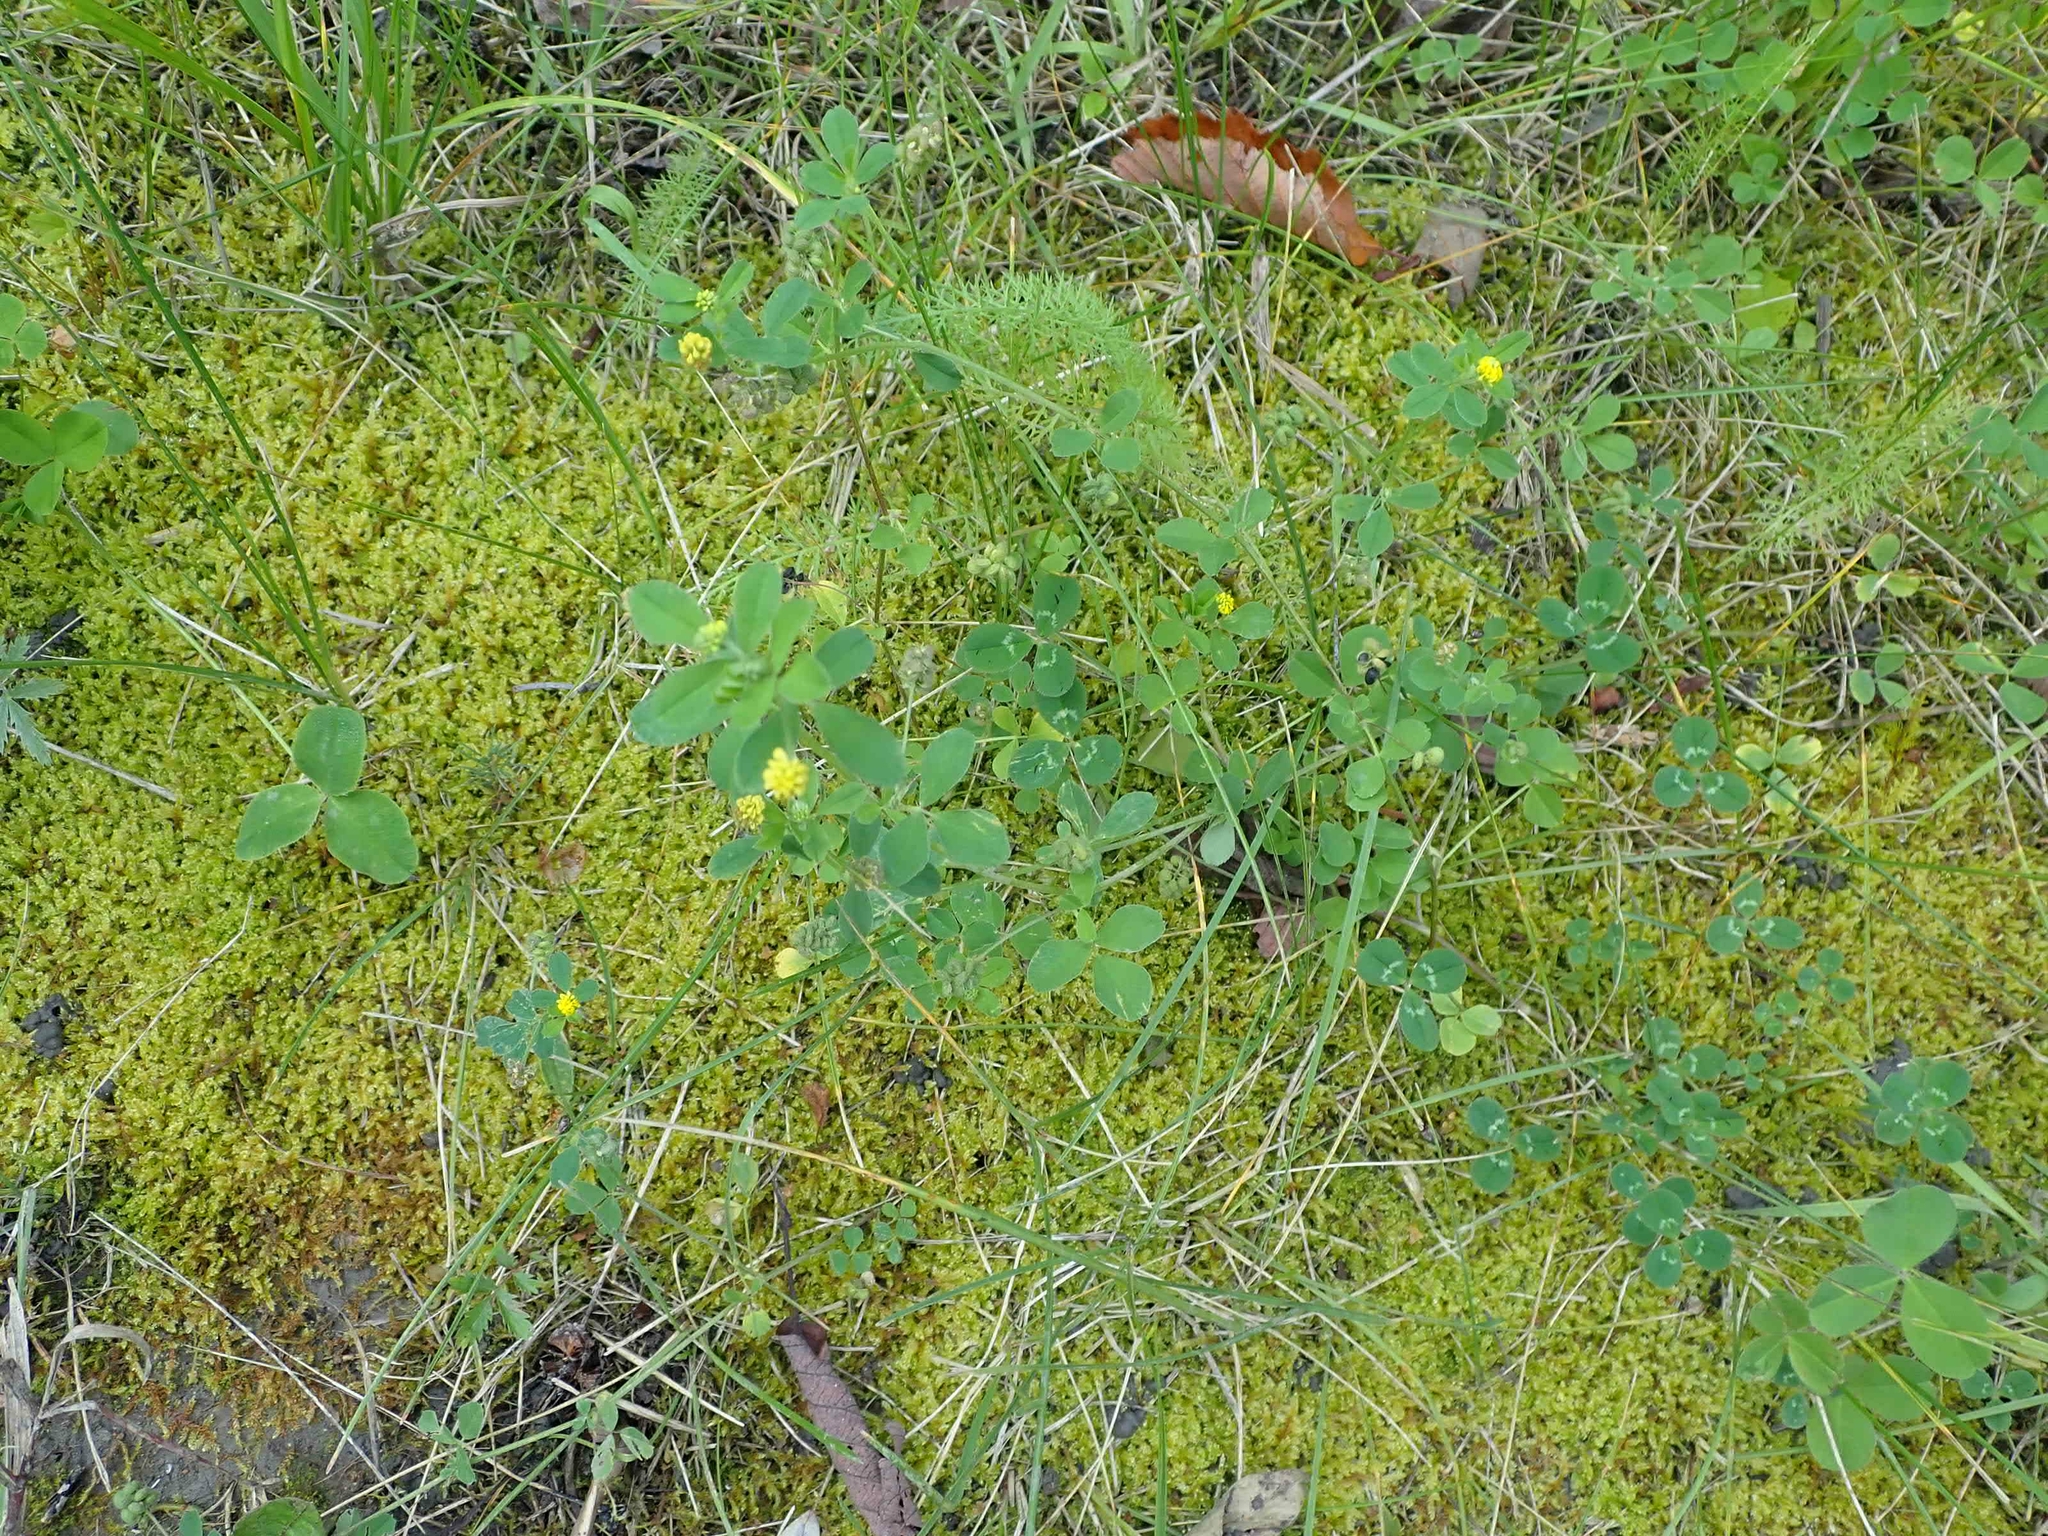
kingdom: Plantae
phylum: Tracheophyta
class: Magnoliopsida
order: Fabales
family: Fabaceae
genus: Medicago
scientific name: Medicago lupulina
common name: Black medick
